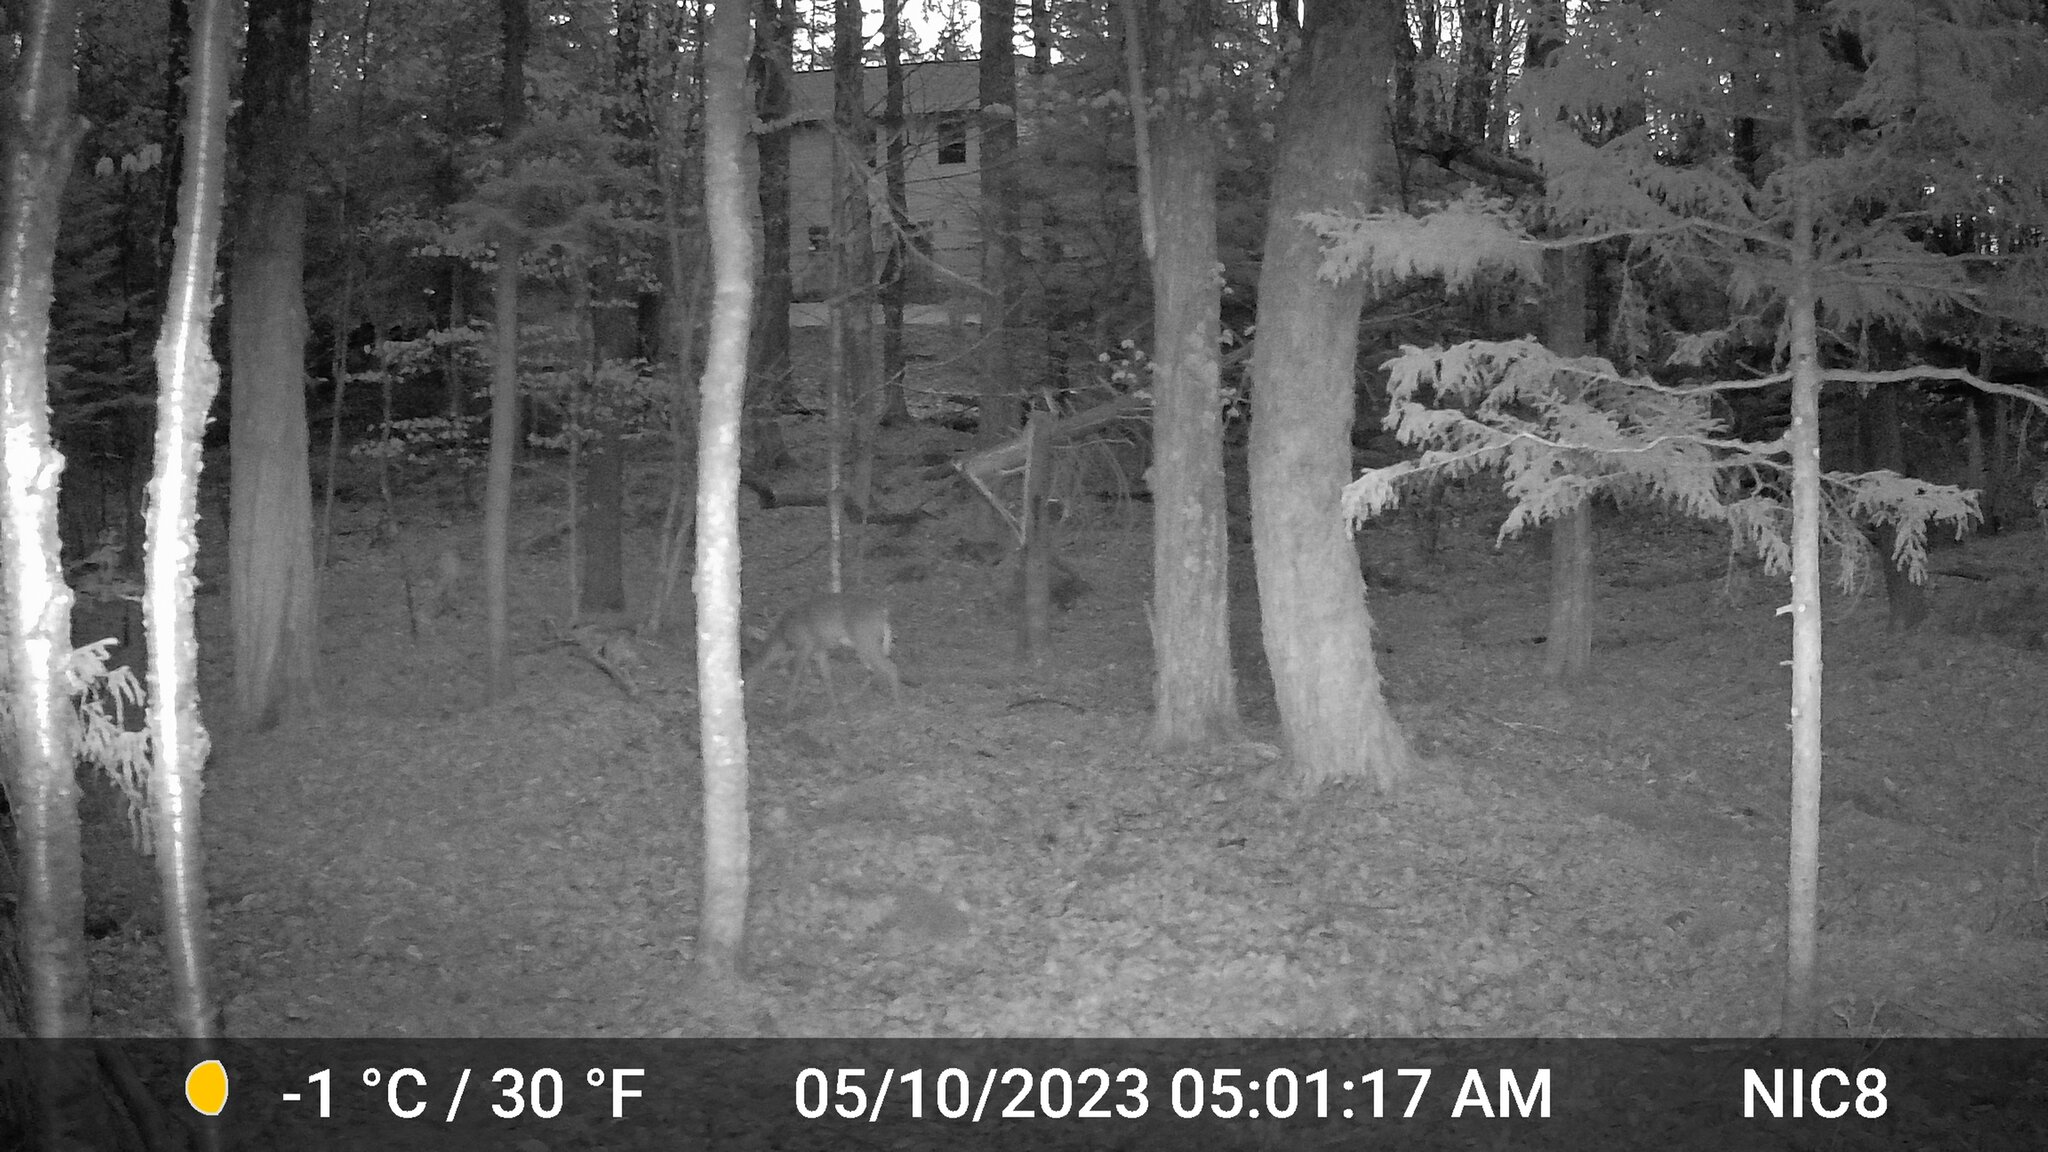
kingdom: Animalia
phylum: Chordata
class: Mammalia
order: Artiodactyla
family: Cervidae
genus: Odocoileus
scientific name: Odocoileus virginianus
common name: White-tailed deer
